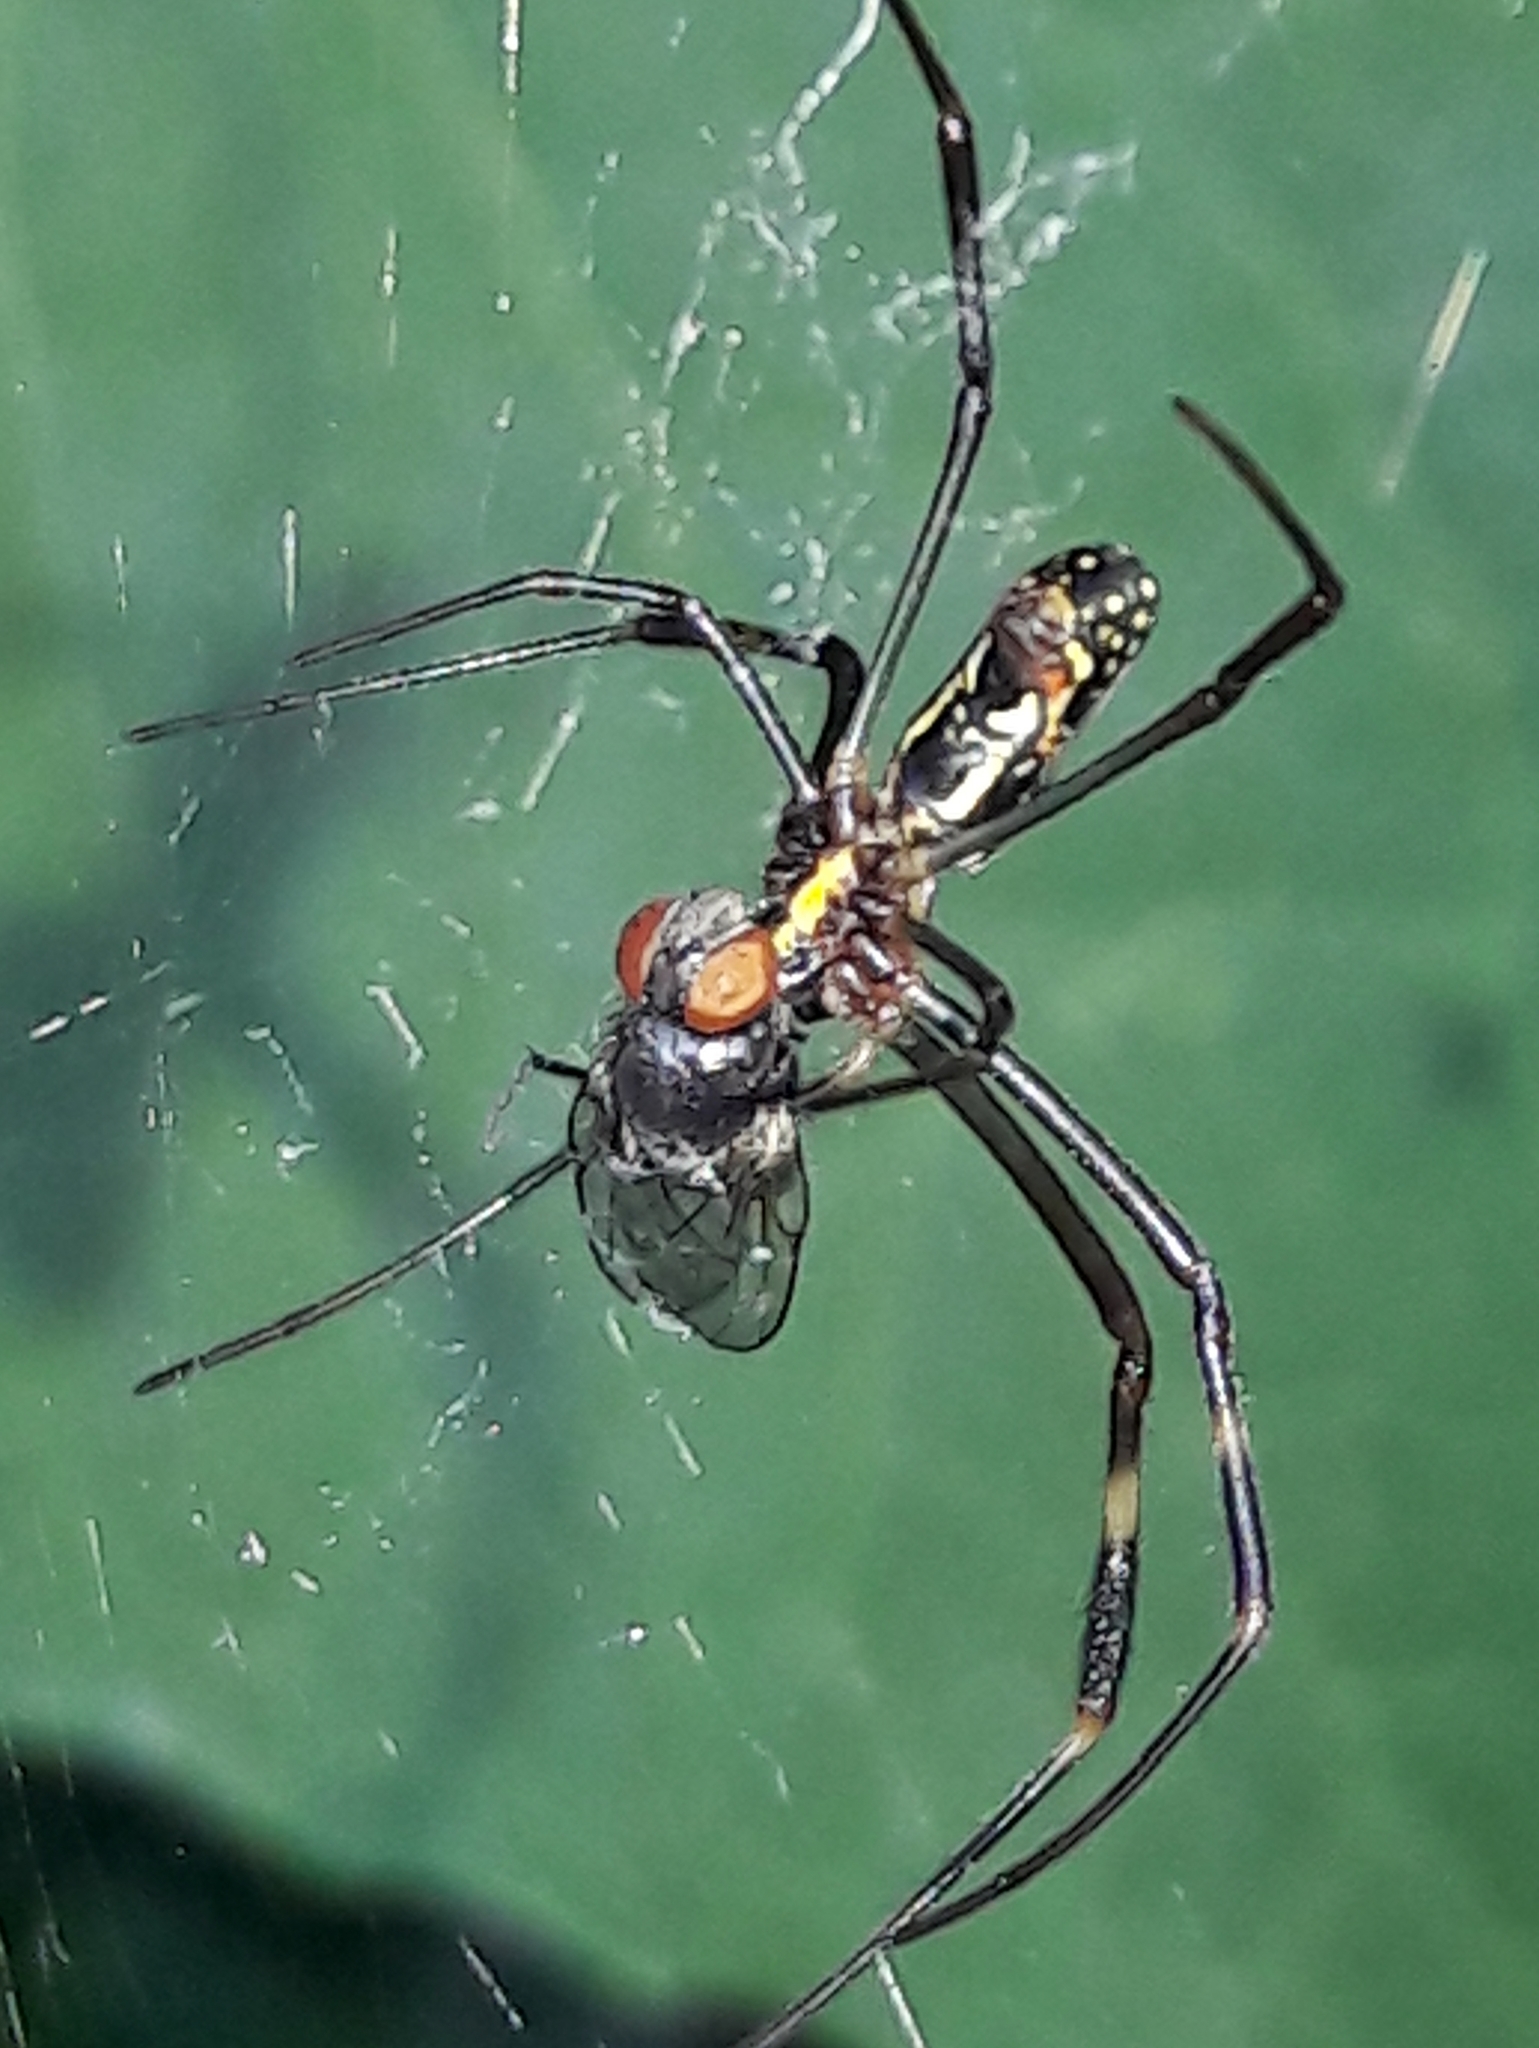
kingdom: Animalia
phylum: Arthropoda
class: Arachnida
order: Araneae
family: Araneidae
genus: Trichonephila
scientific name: Trichonephila clavipes
